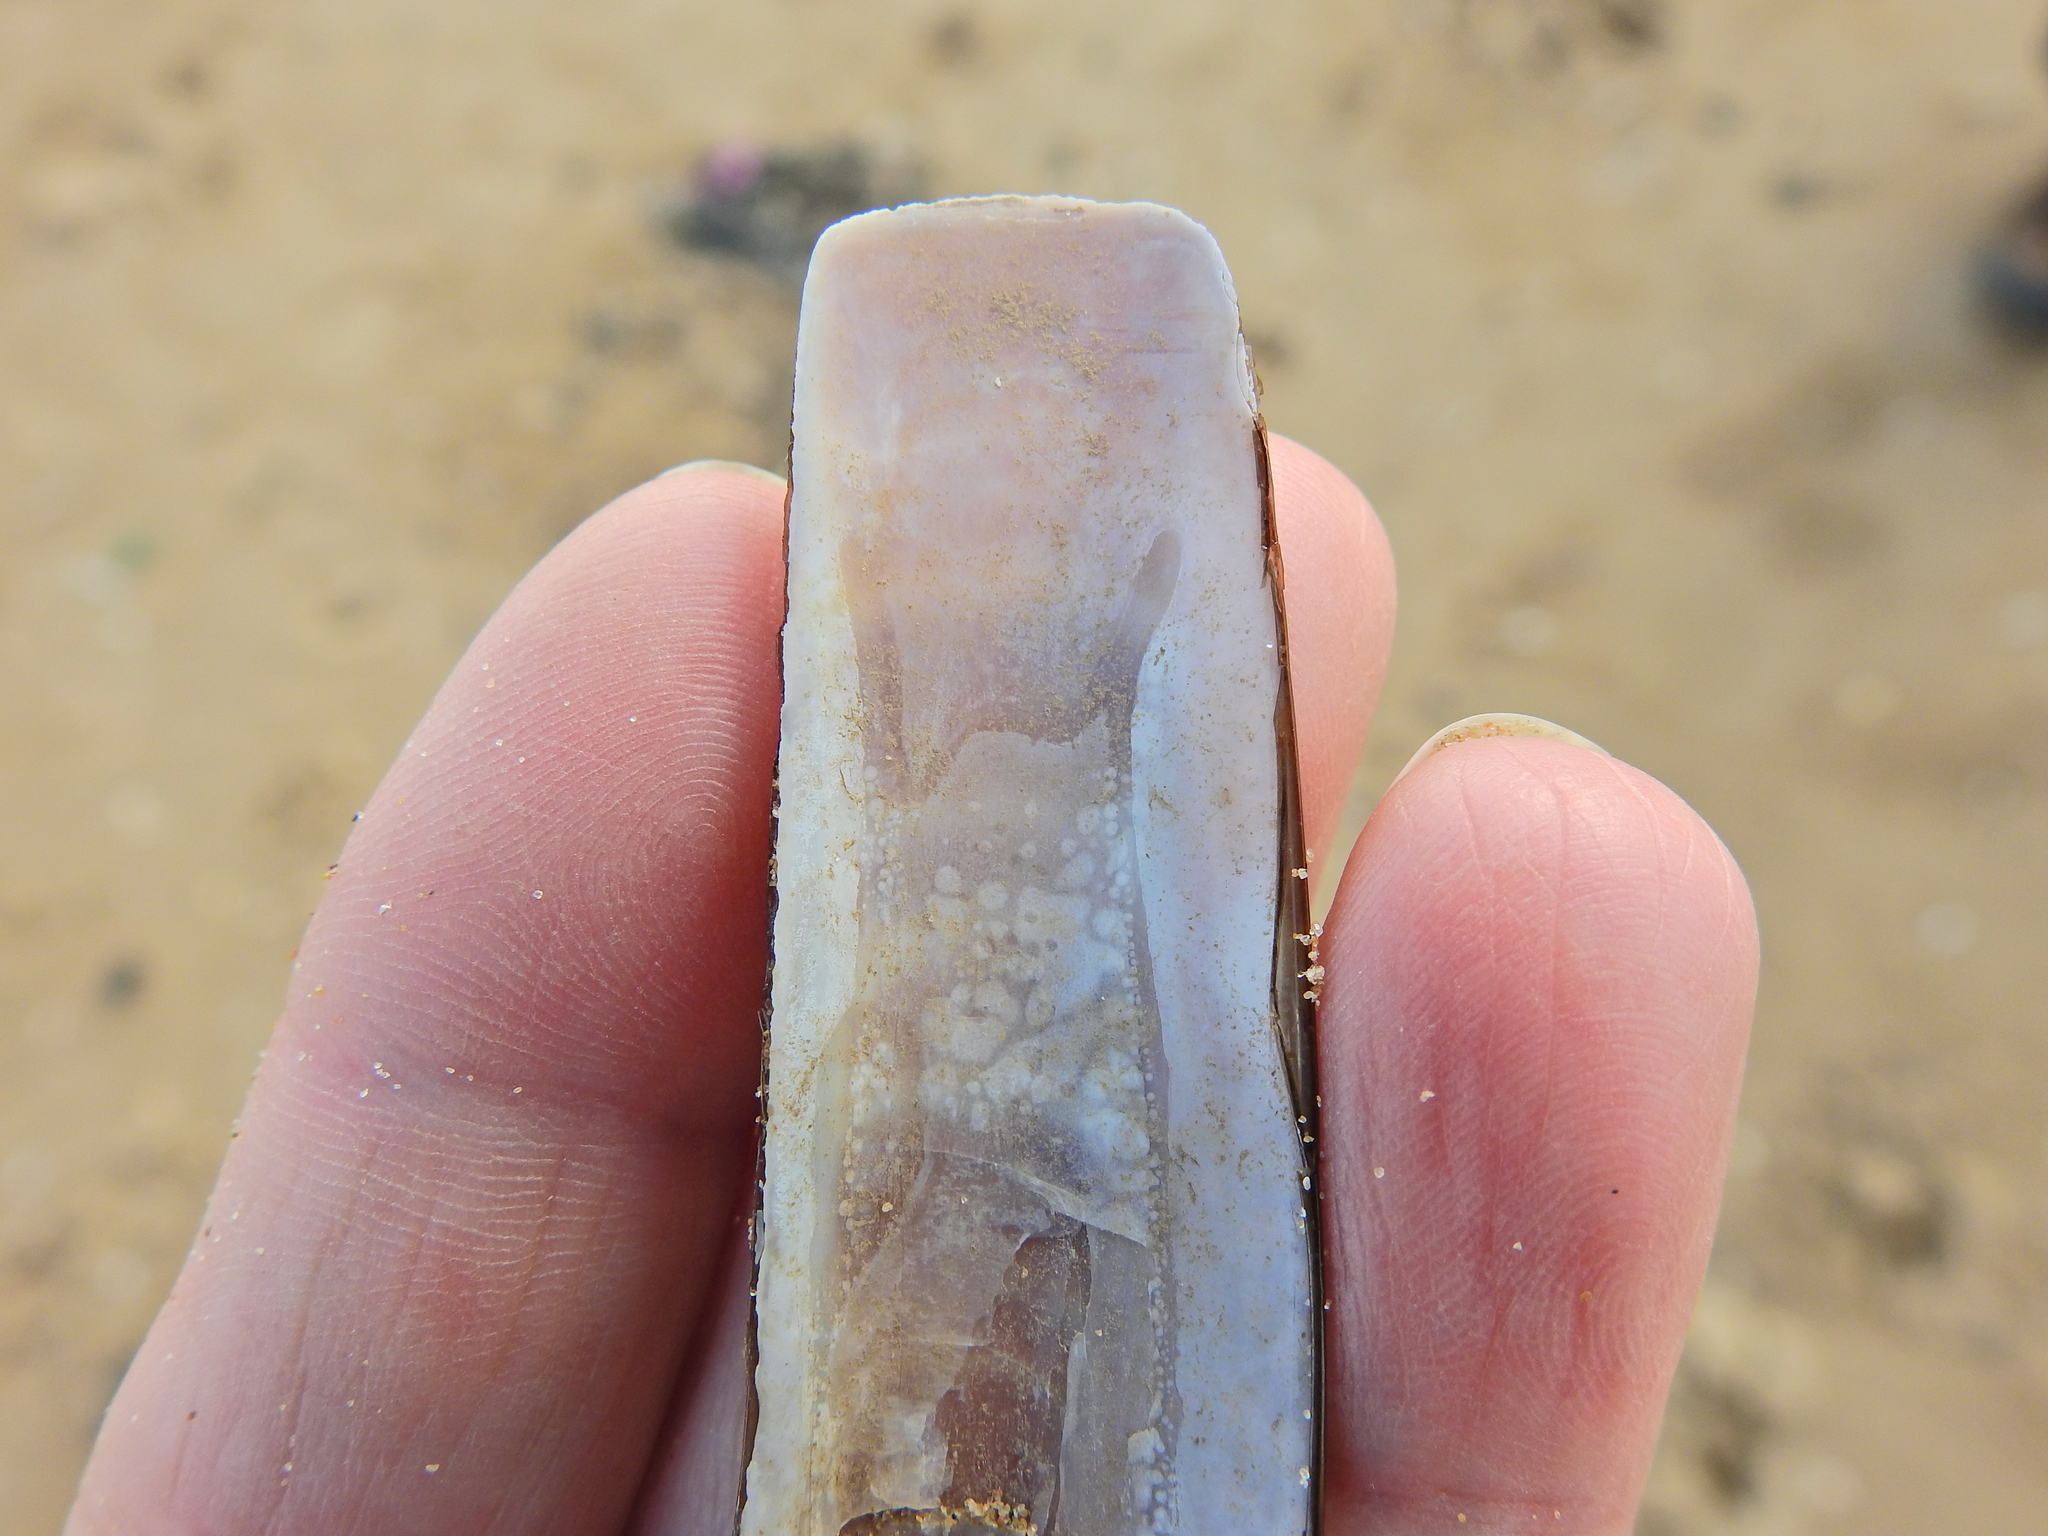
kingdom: Animalia
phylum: Mollusca
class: Bivalvia
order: Adapedonta
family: Pharidae
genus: Ensis
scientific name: Ensis leei
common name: American jack knife clam
